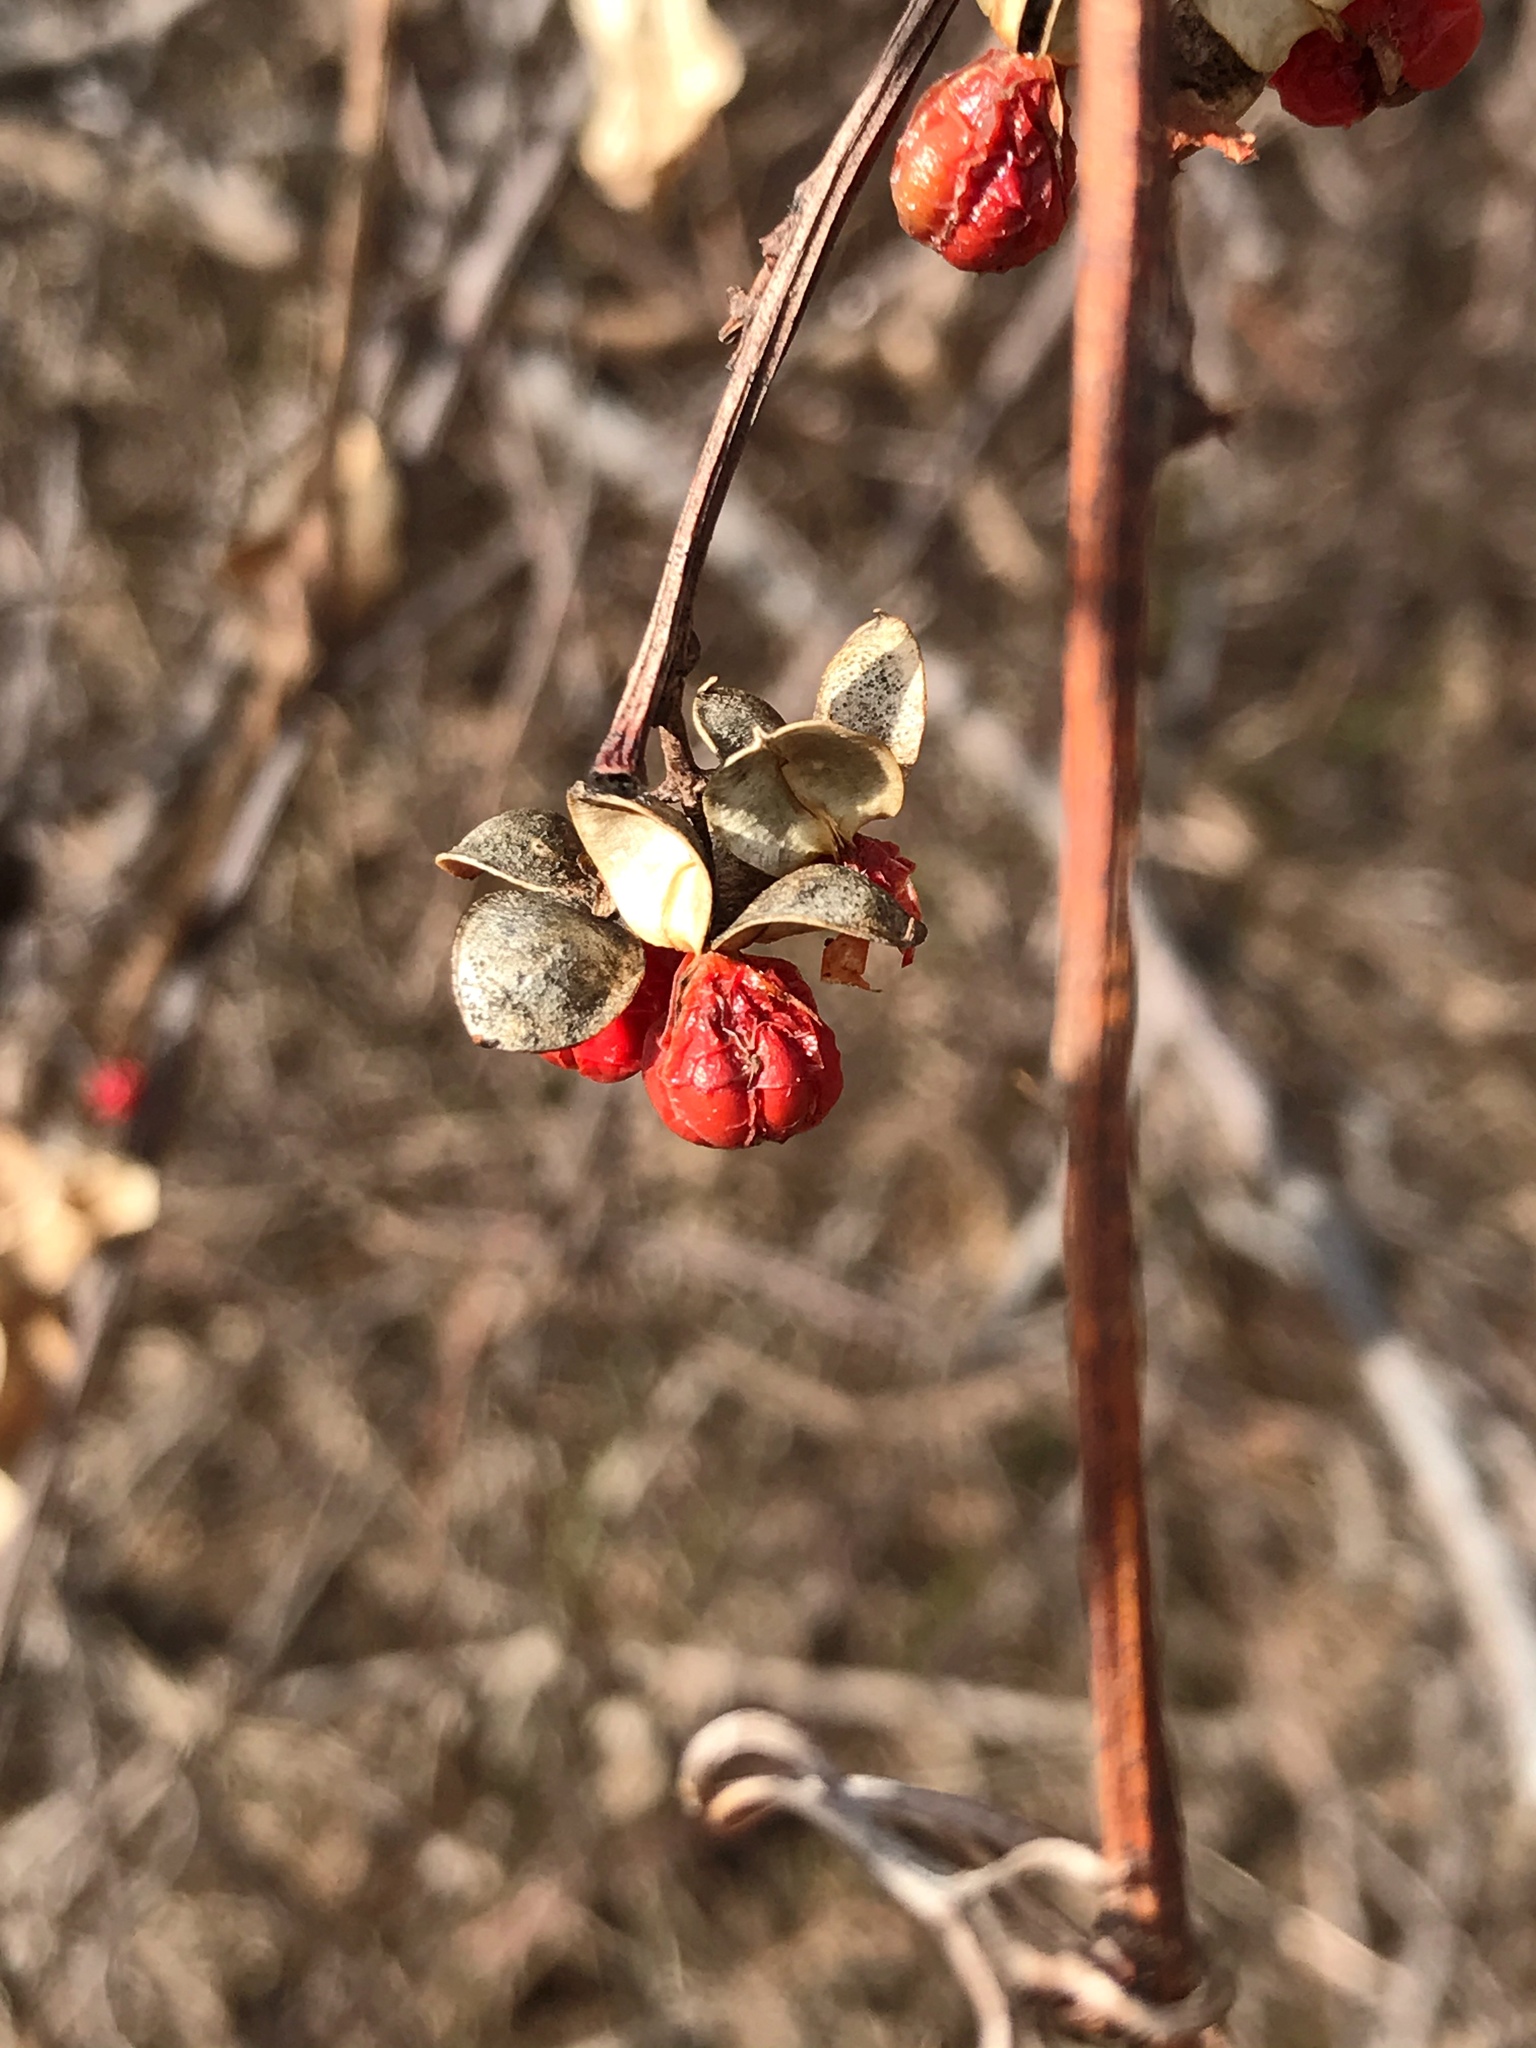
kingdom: Plantae
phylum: Tracheophyta
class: Magnoliopsida
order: Celastrales
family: Celastraceae
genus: Celastrus
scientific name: Celastrus orbiculatus
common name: Oriental bittersweet
